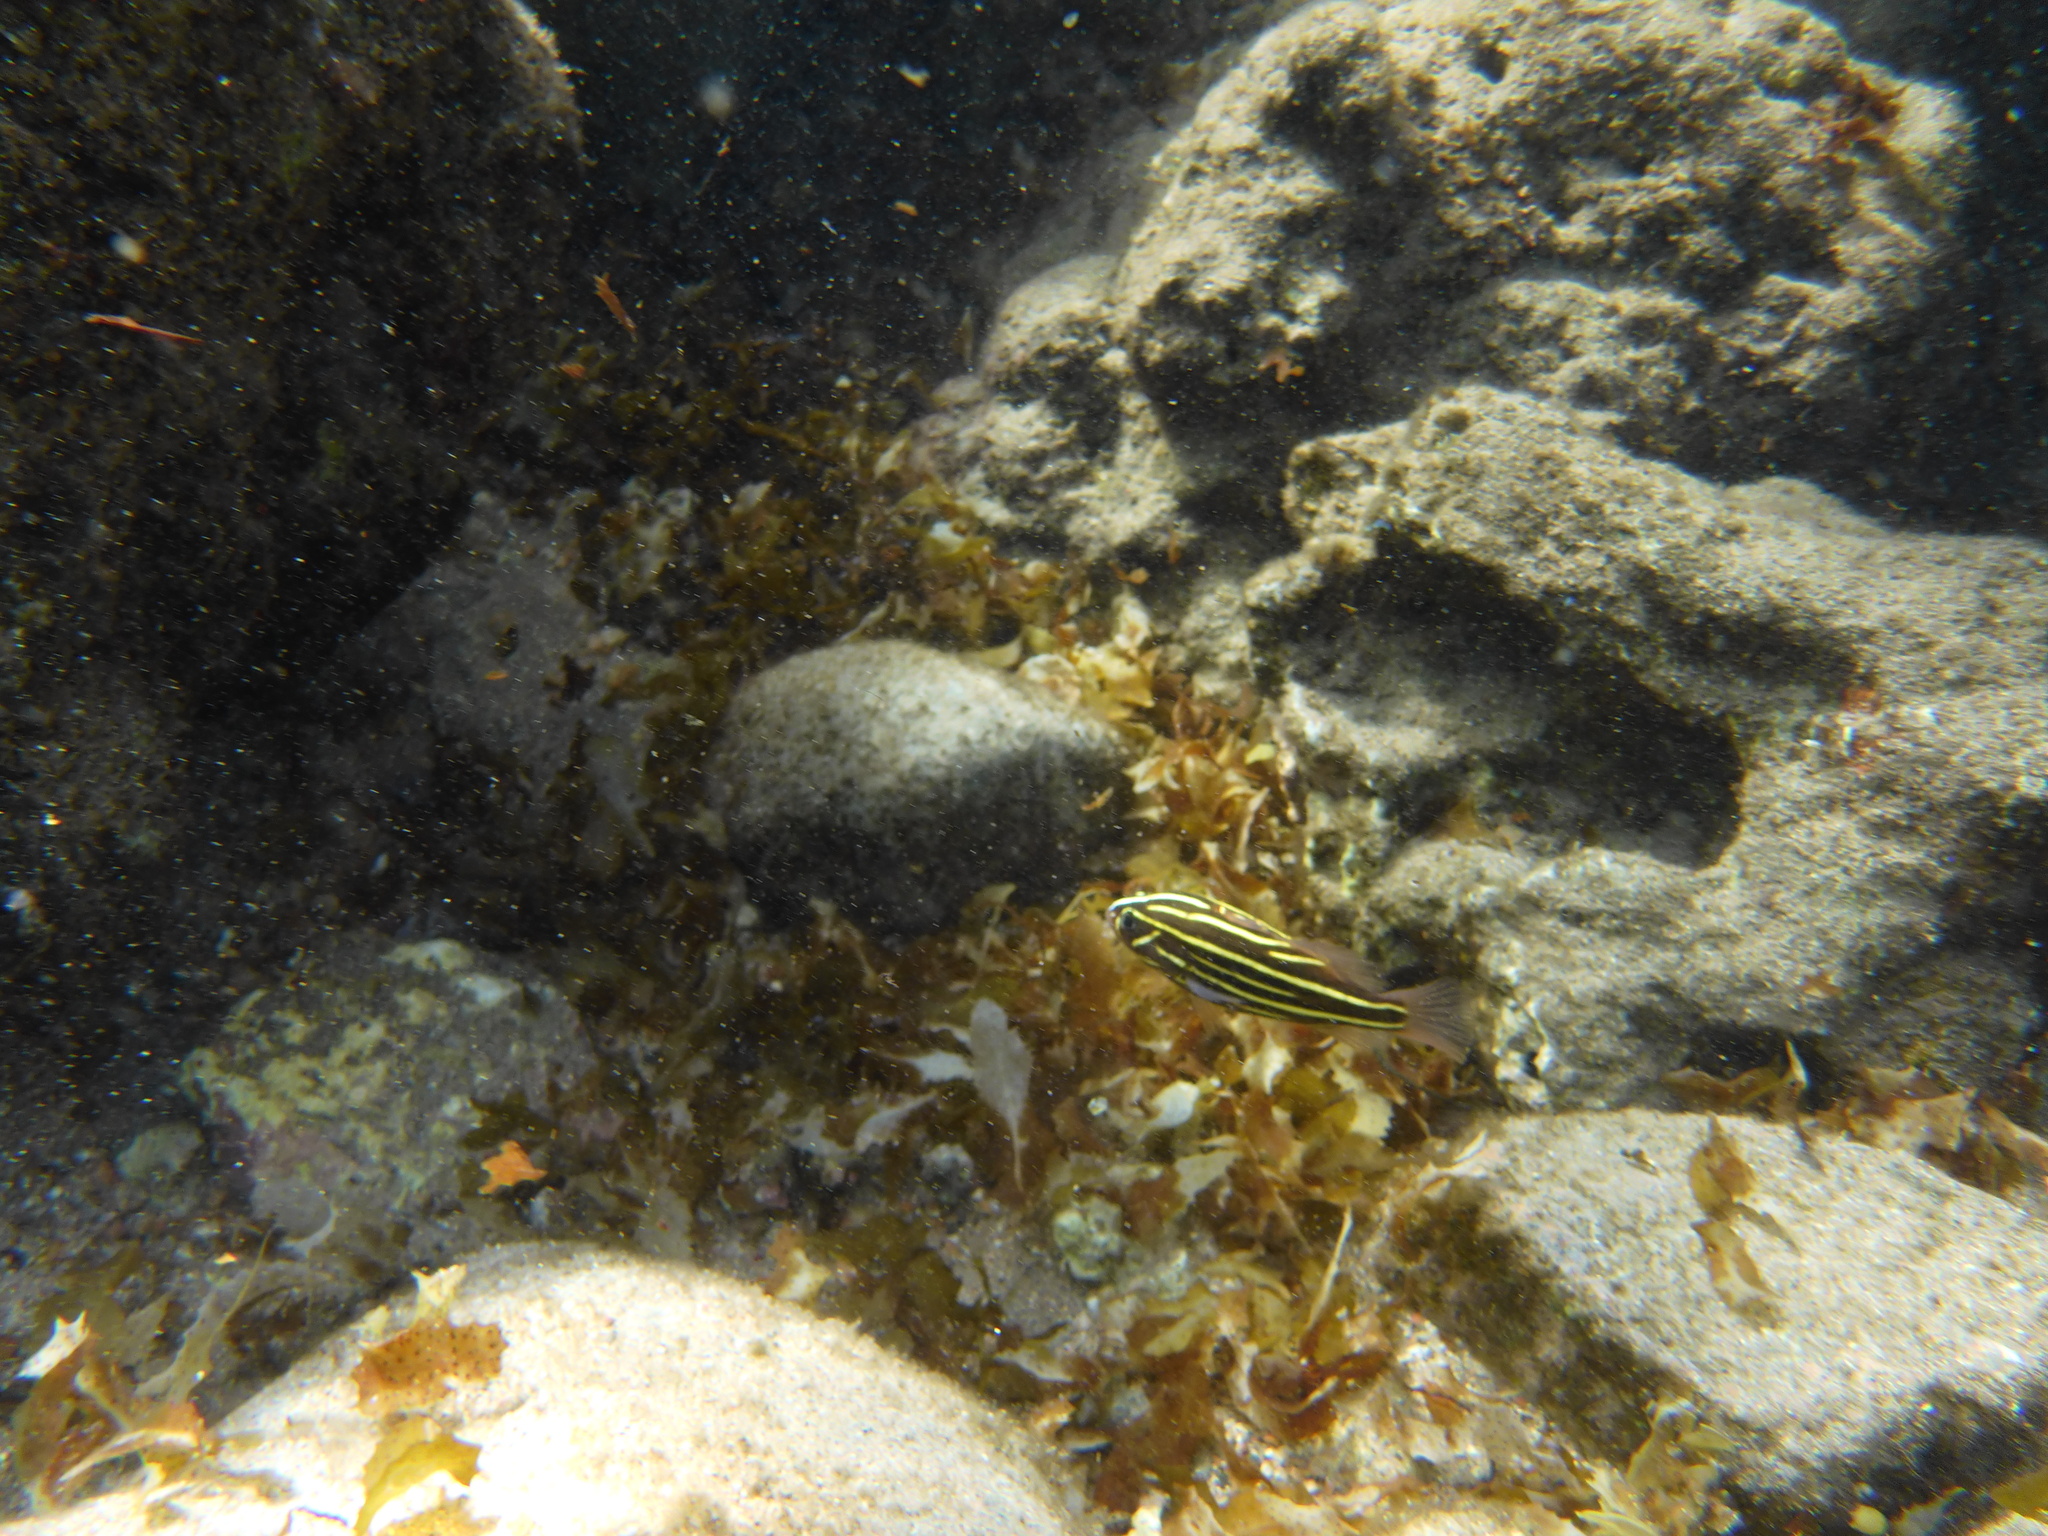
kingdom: Animalia
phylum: Chordata
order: Perciformes
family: Serranidae
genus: Grammistes
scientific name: Grammistes sexlineatus
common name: Sixline soapfish
